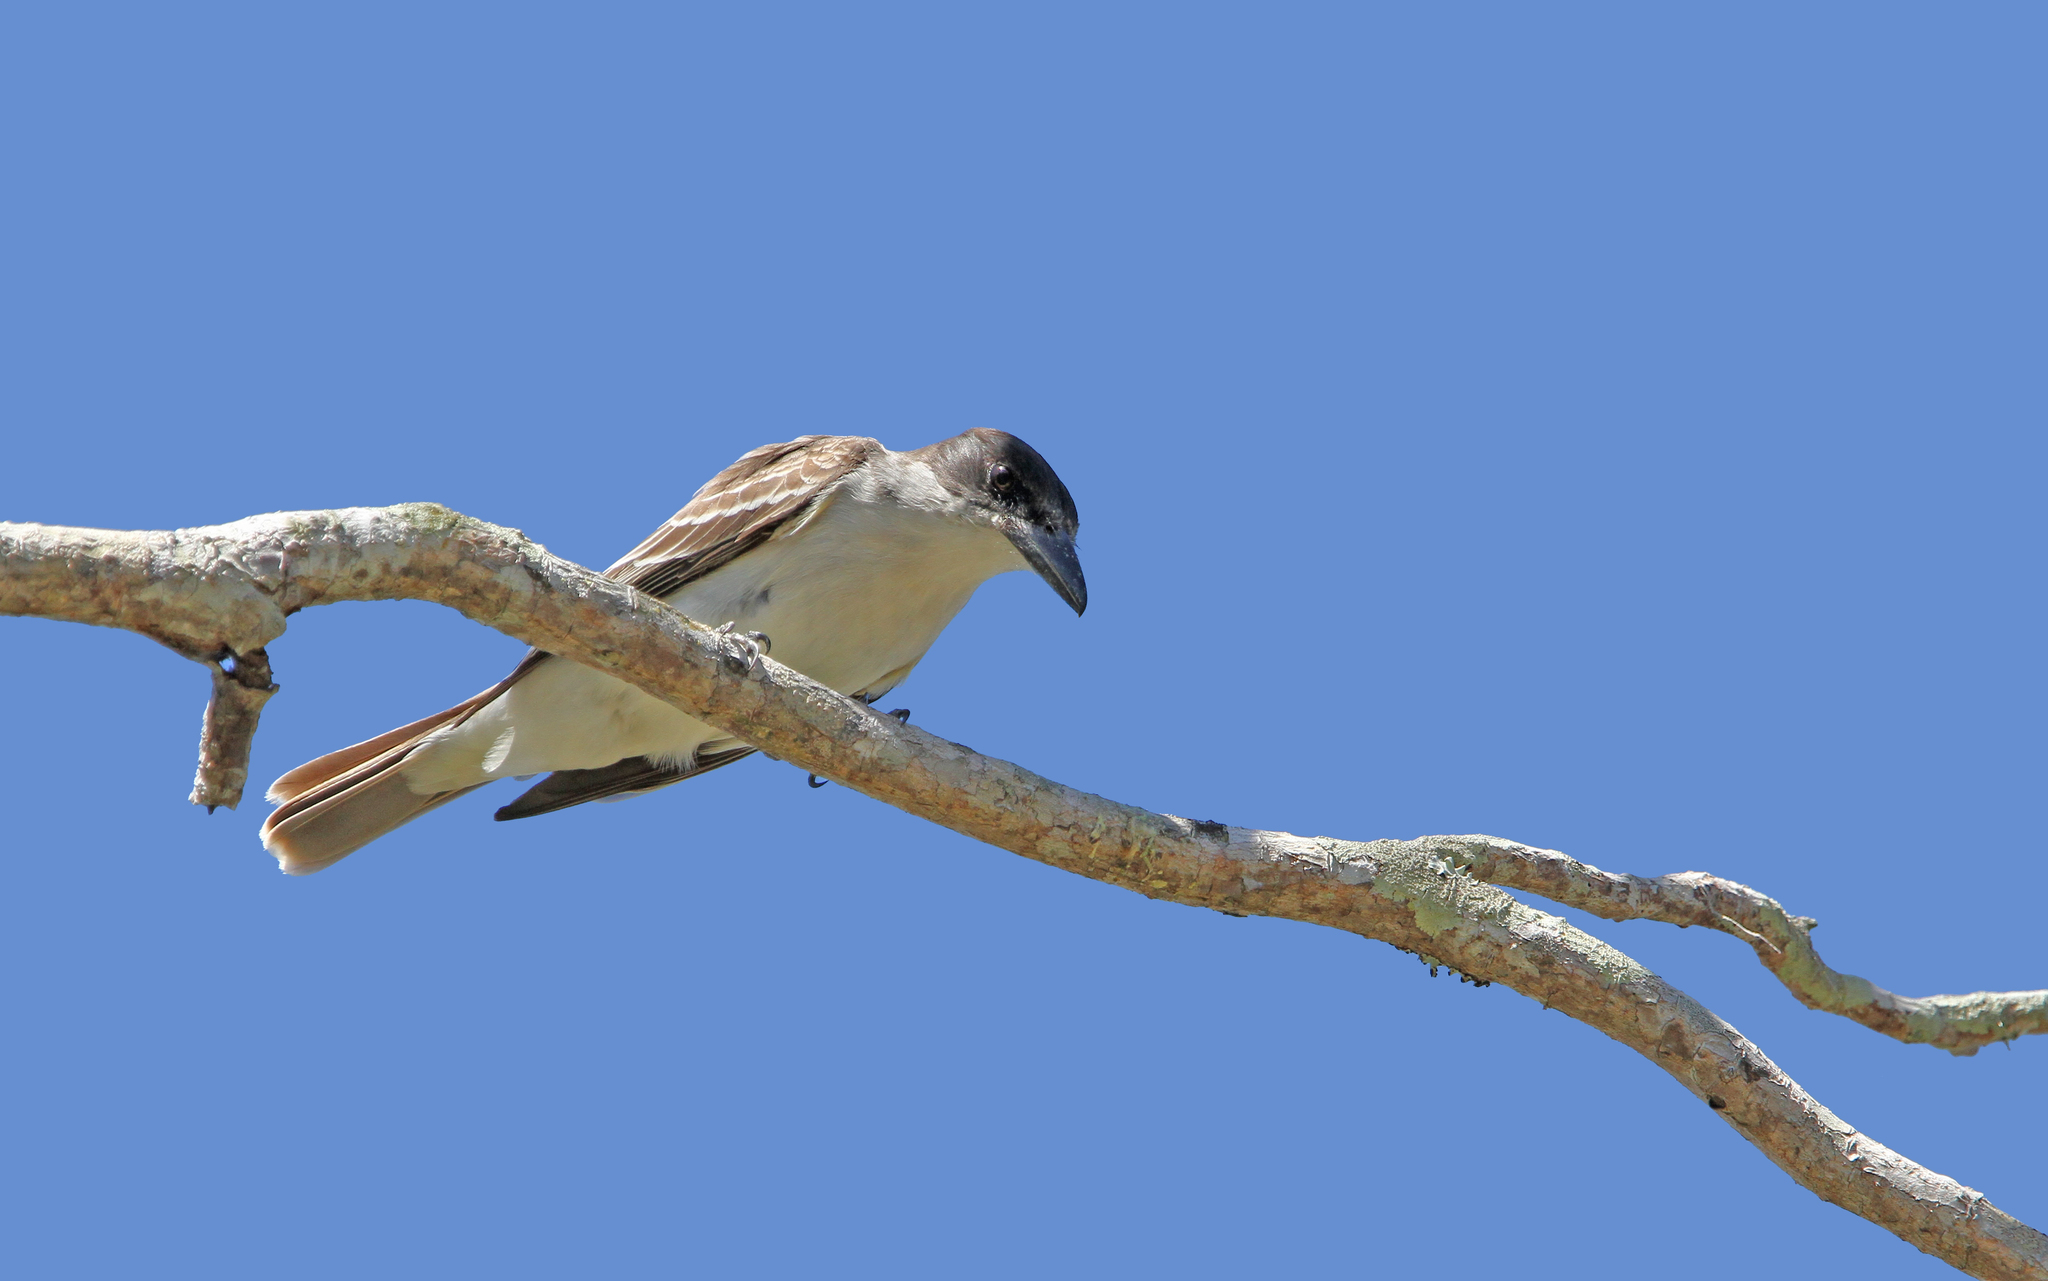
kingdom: Animalia
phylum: Chordata
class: Aves
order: Passeriformes
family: Tyrannidae
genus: Tyrannus
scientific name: Tyrannus cubensis
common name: Giant kingbird
